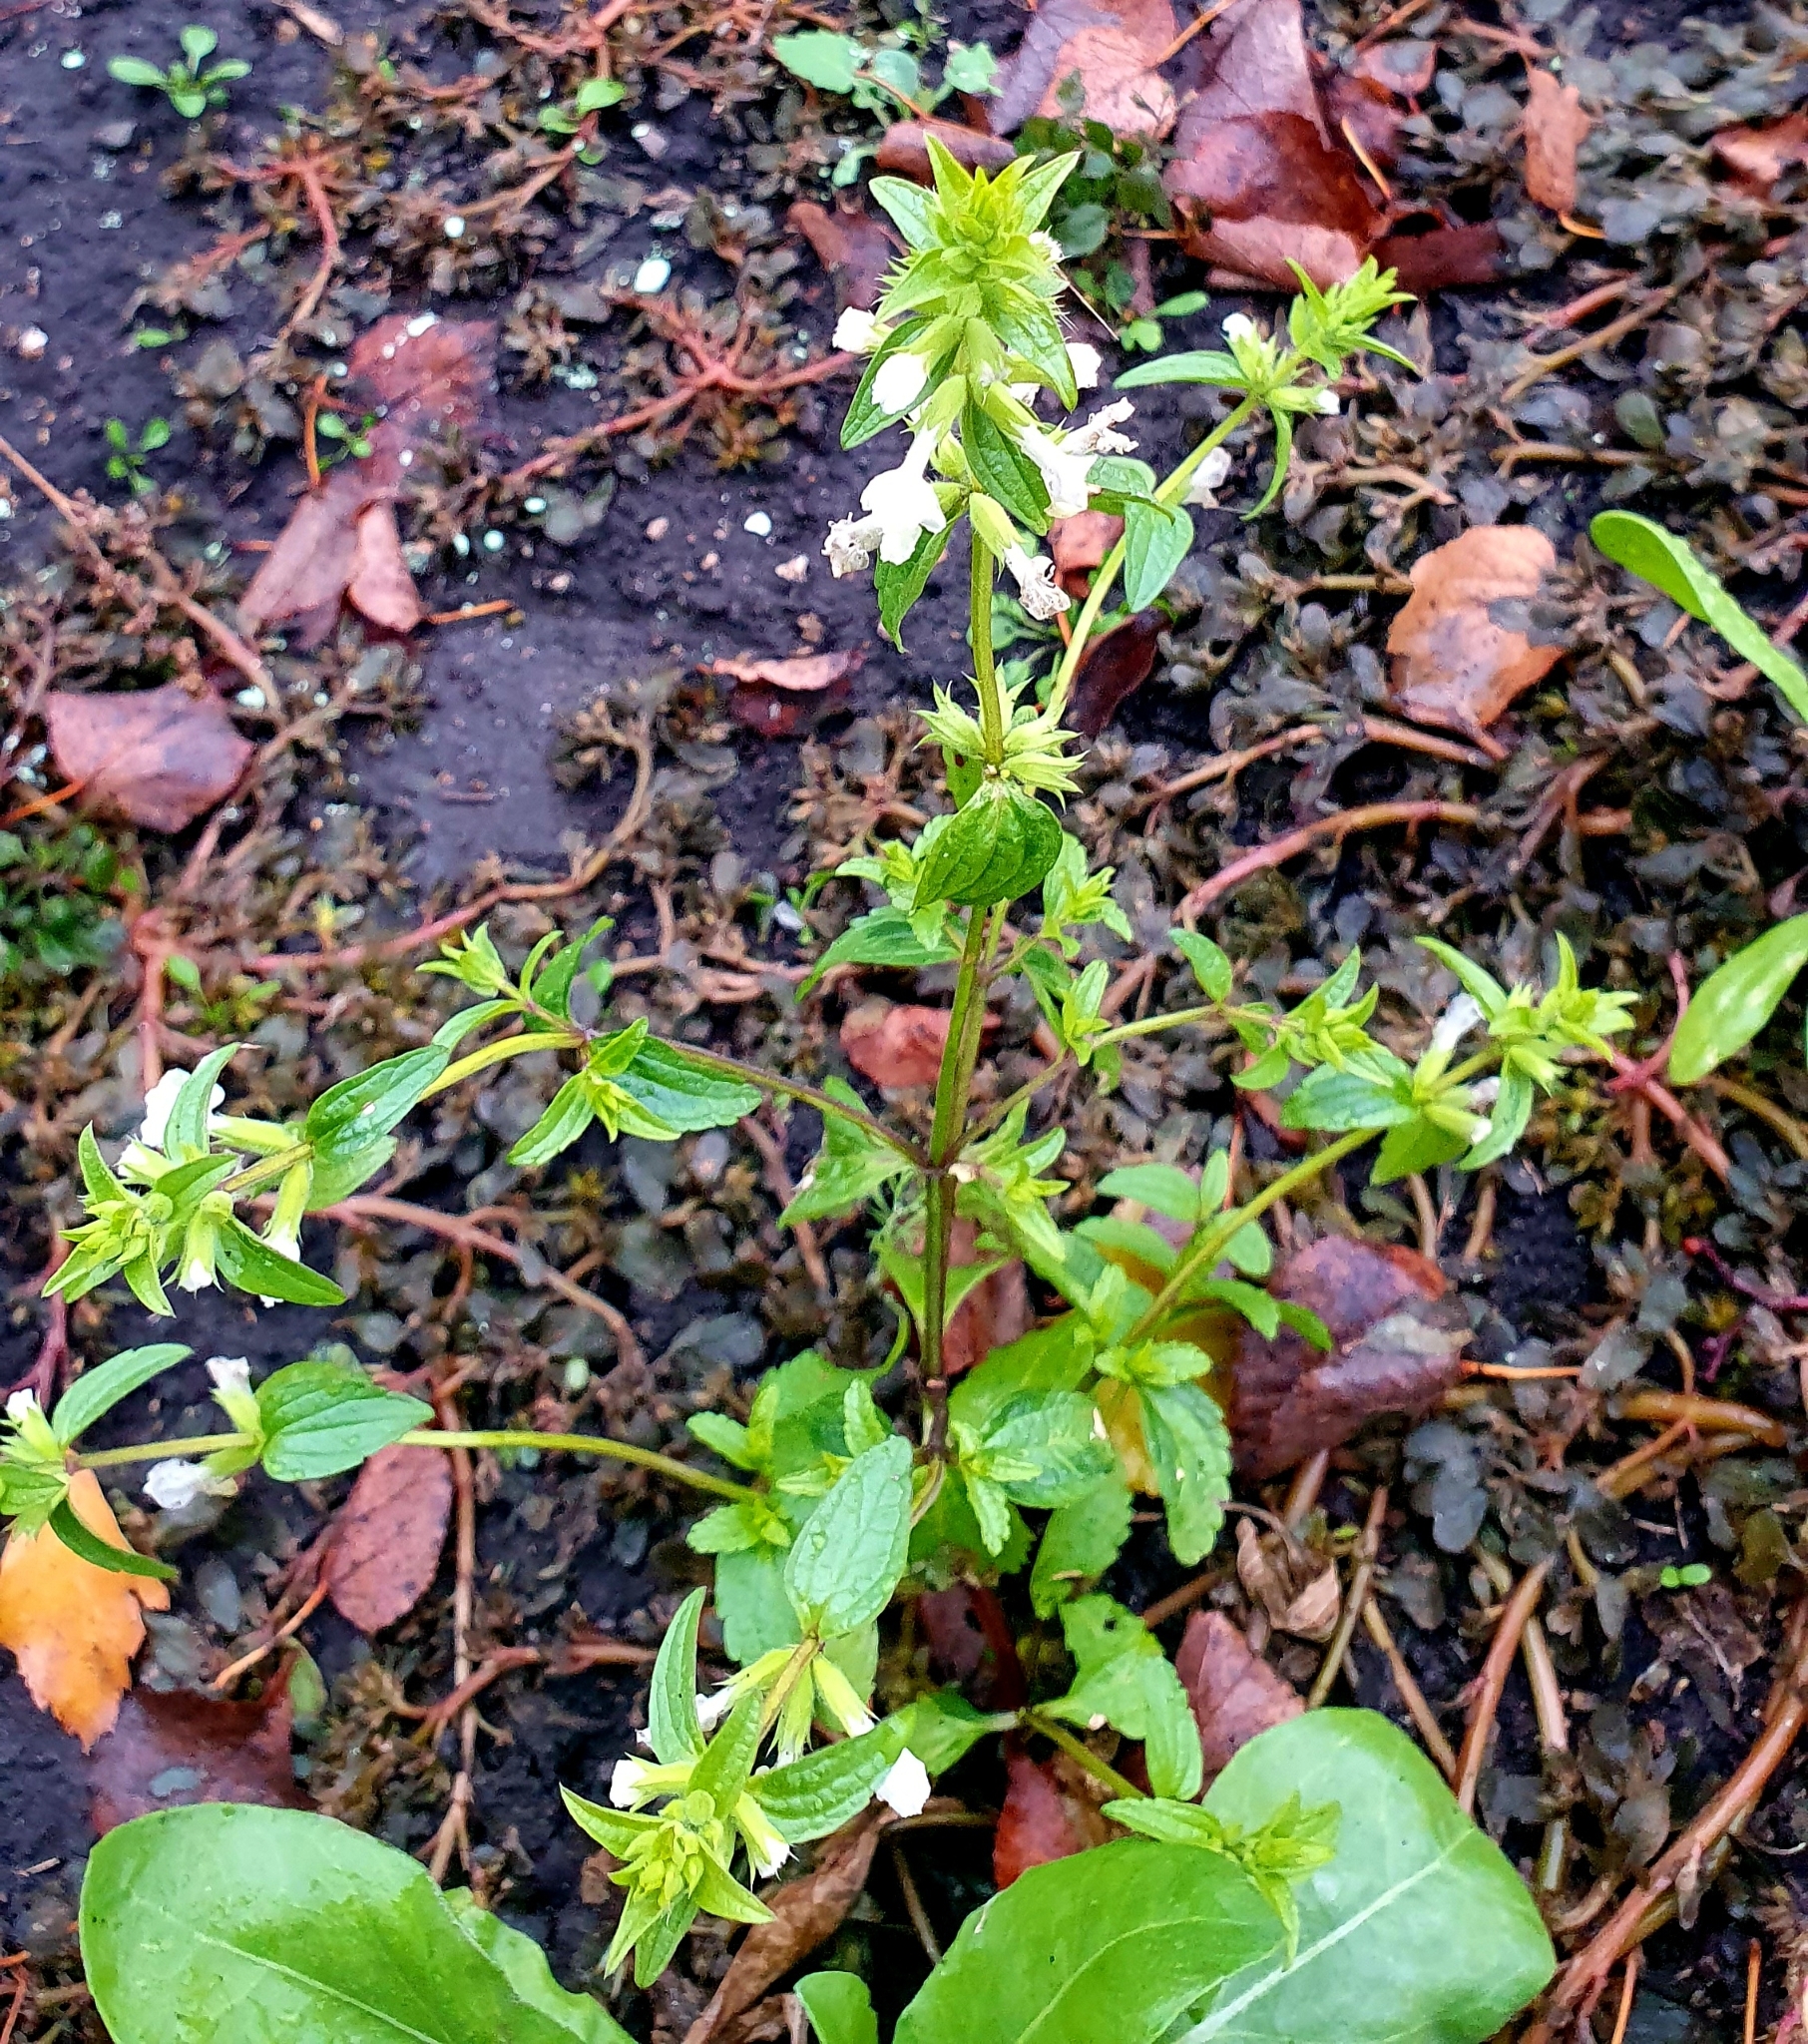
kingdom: Plantae
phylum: Tracheophyta
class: Magnoliopsida
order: Lamiales
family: Lamiaceae
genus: Stachys
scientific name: Stachys annua
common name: Annual yellow-woundwort
